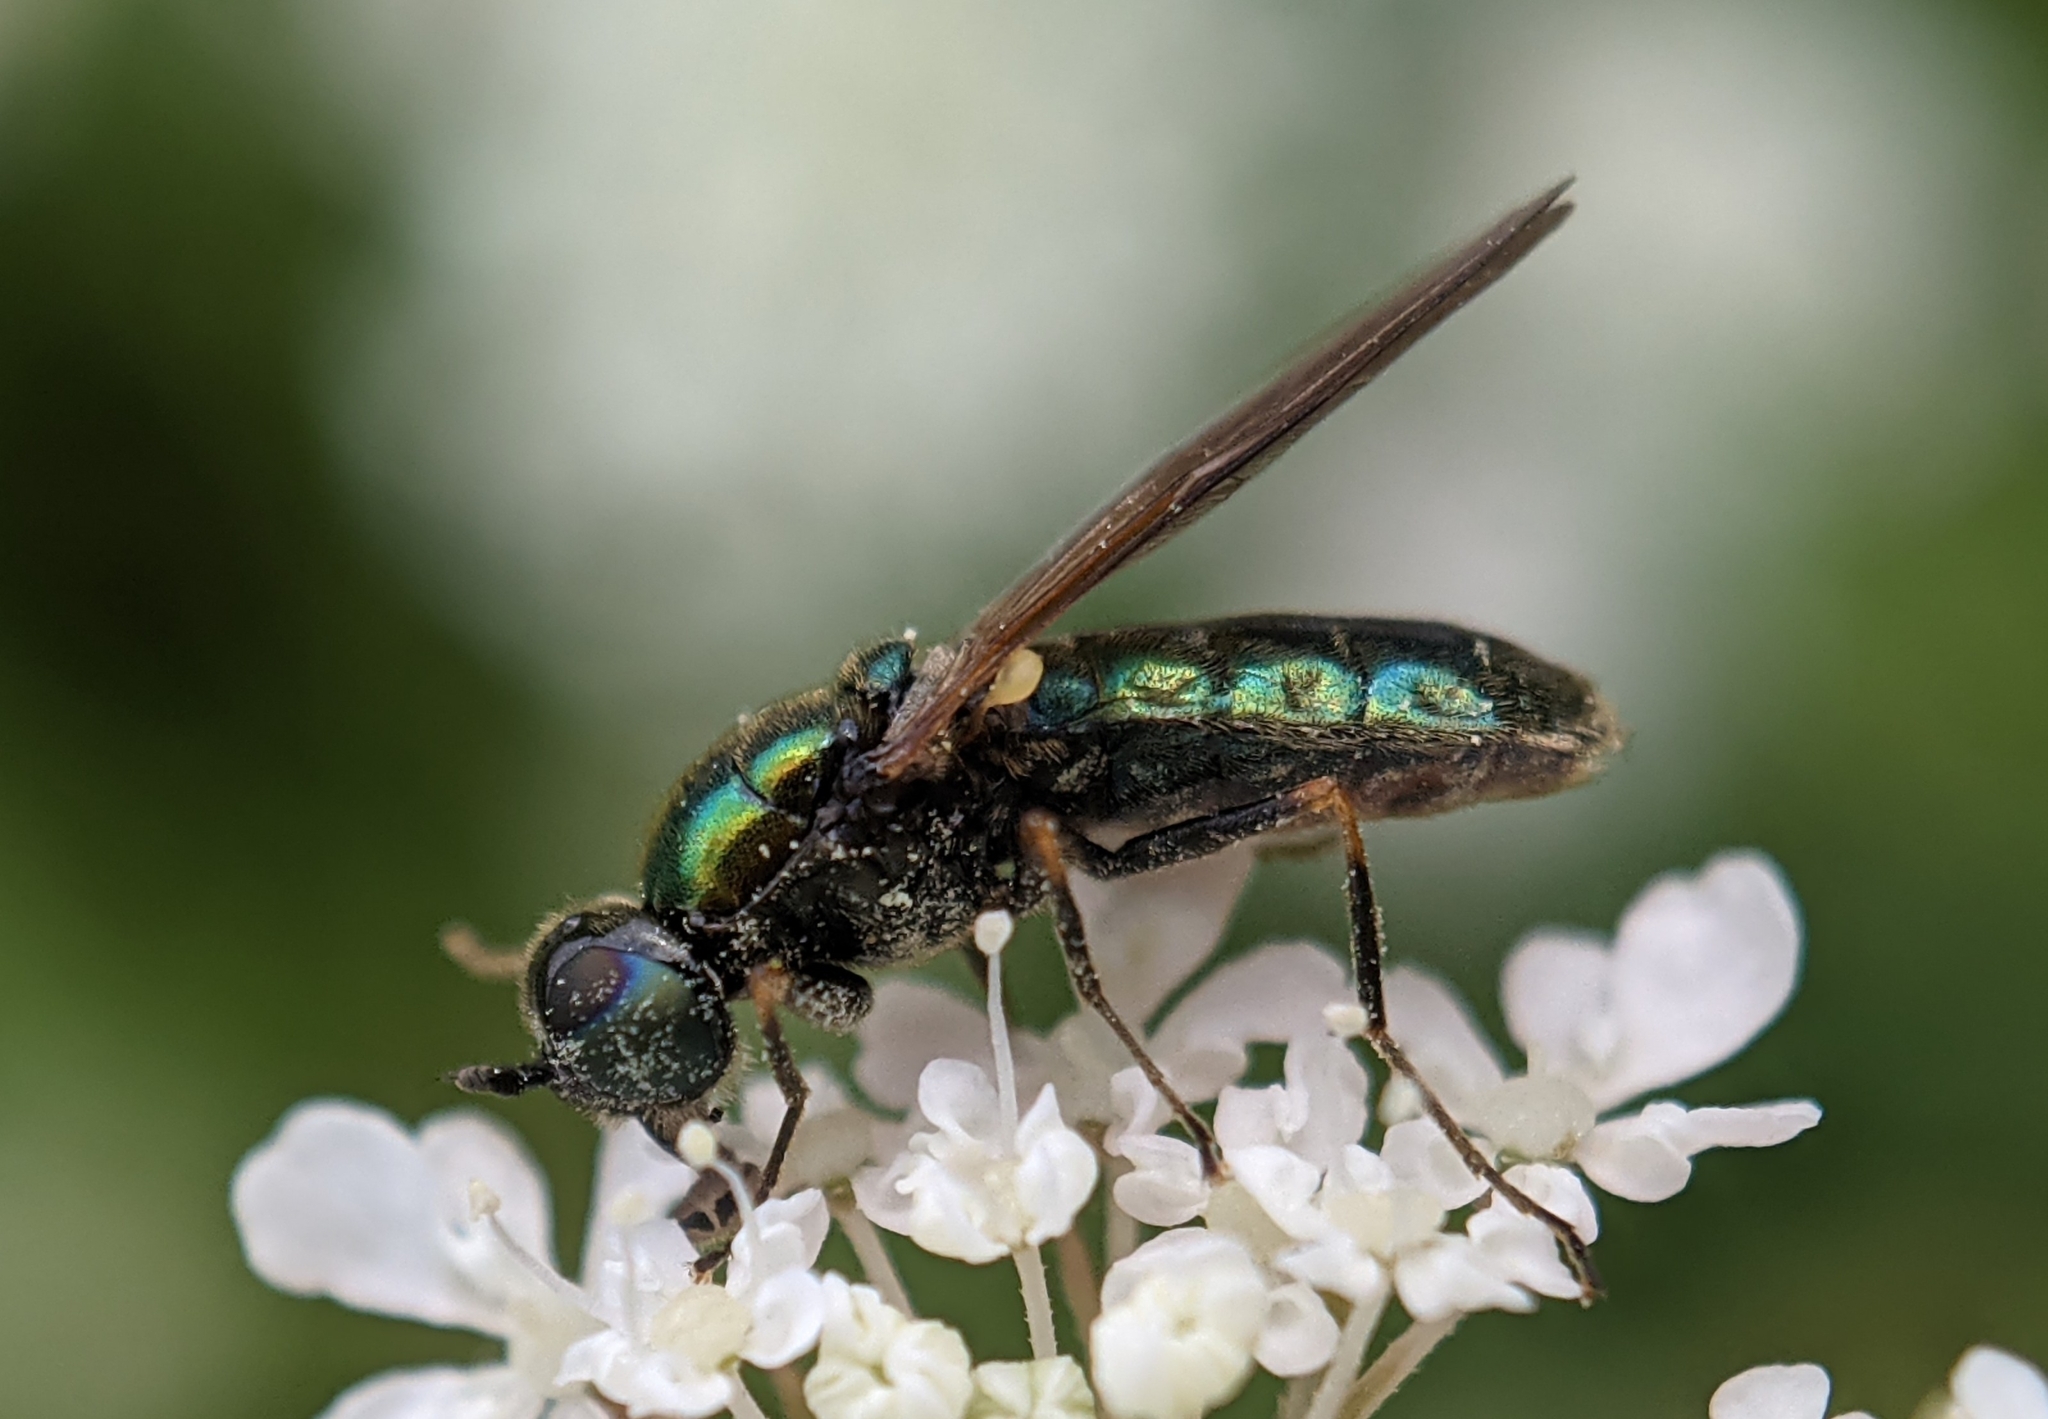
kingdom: Animalia
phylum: Arthropoda
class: Insecta
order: Diptera
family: Stratiomyidae
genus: Chloromyia
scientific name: Chloromyia formosa
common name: Soldier fly
